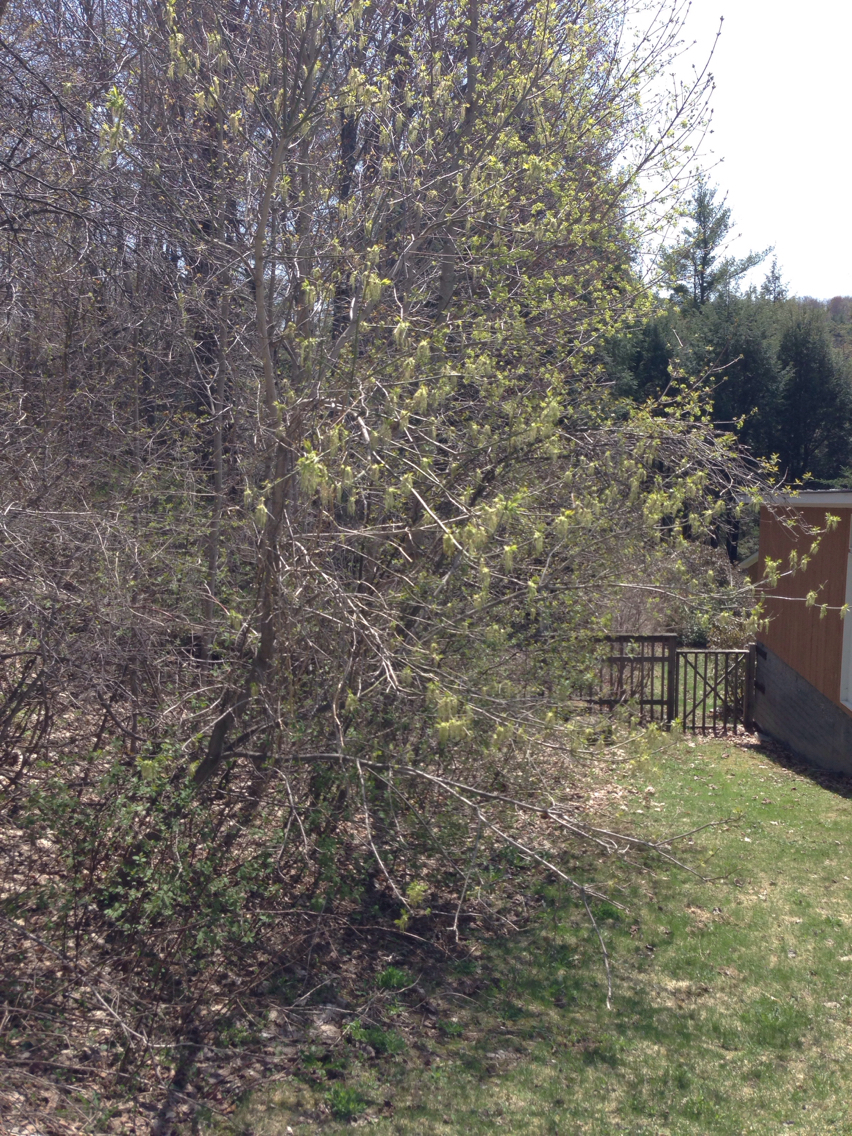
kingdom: Plantae
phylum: Tracheophyta
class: Magnoliopsida
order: Sapindales
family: Sapindaceae
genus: Acer
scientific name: Acer negundo
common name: Ashleaf maple
